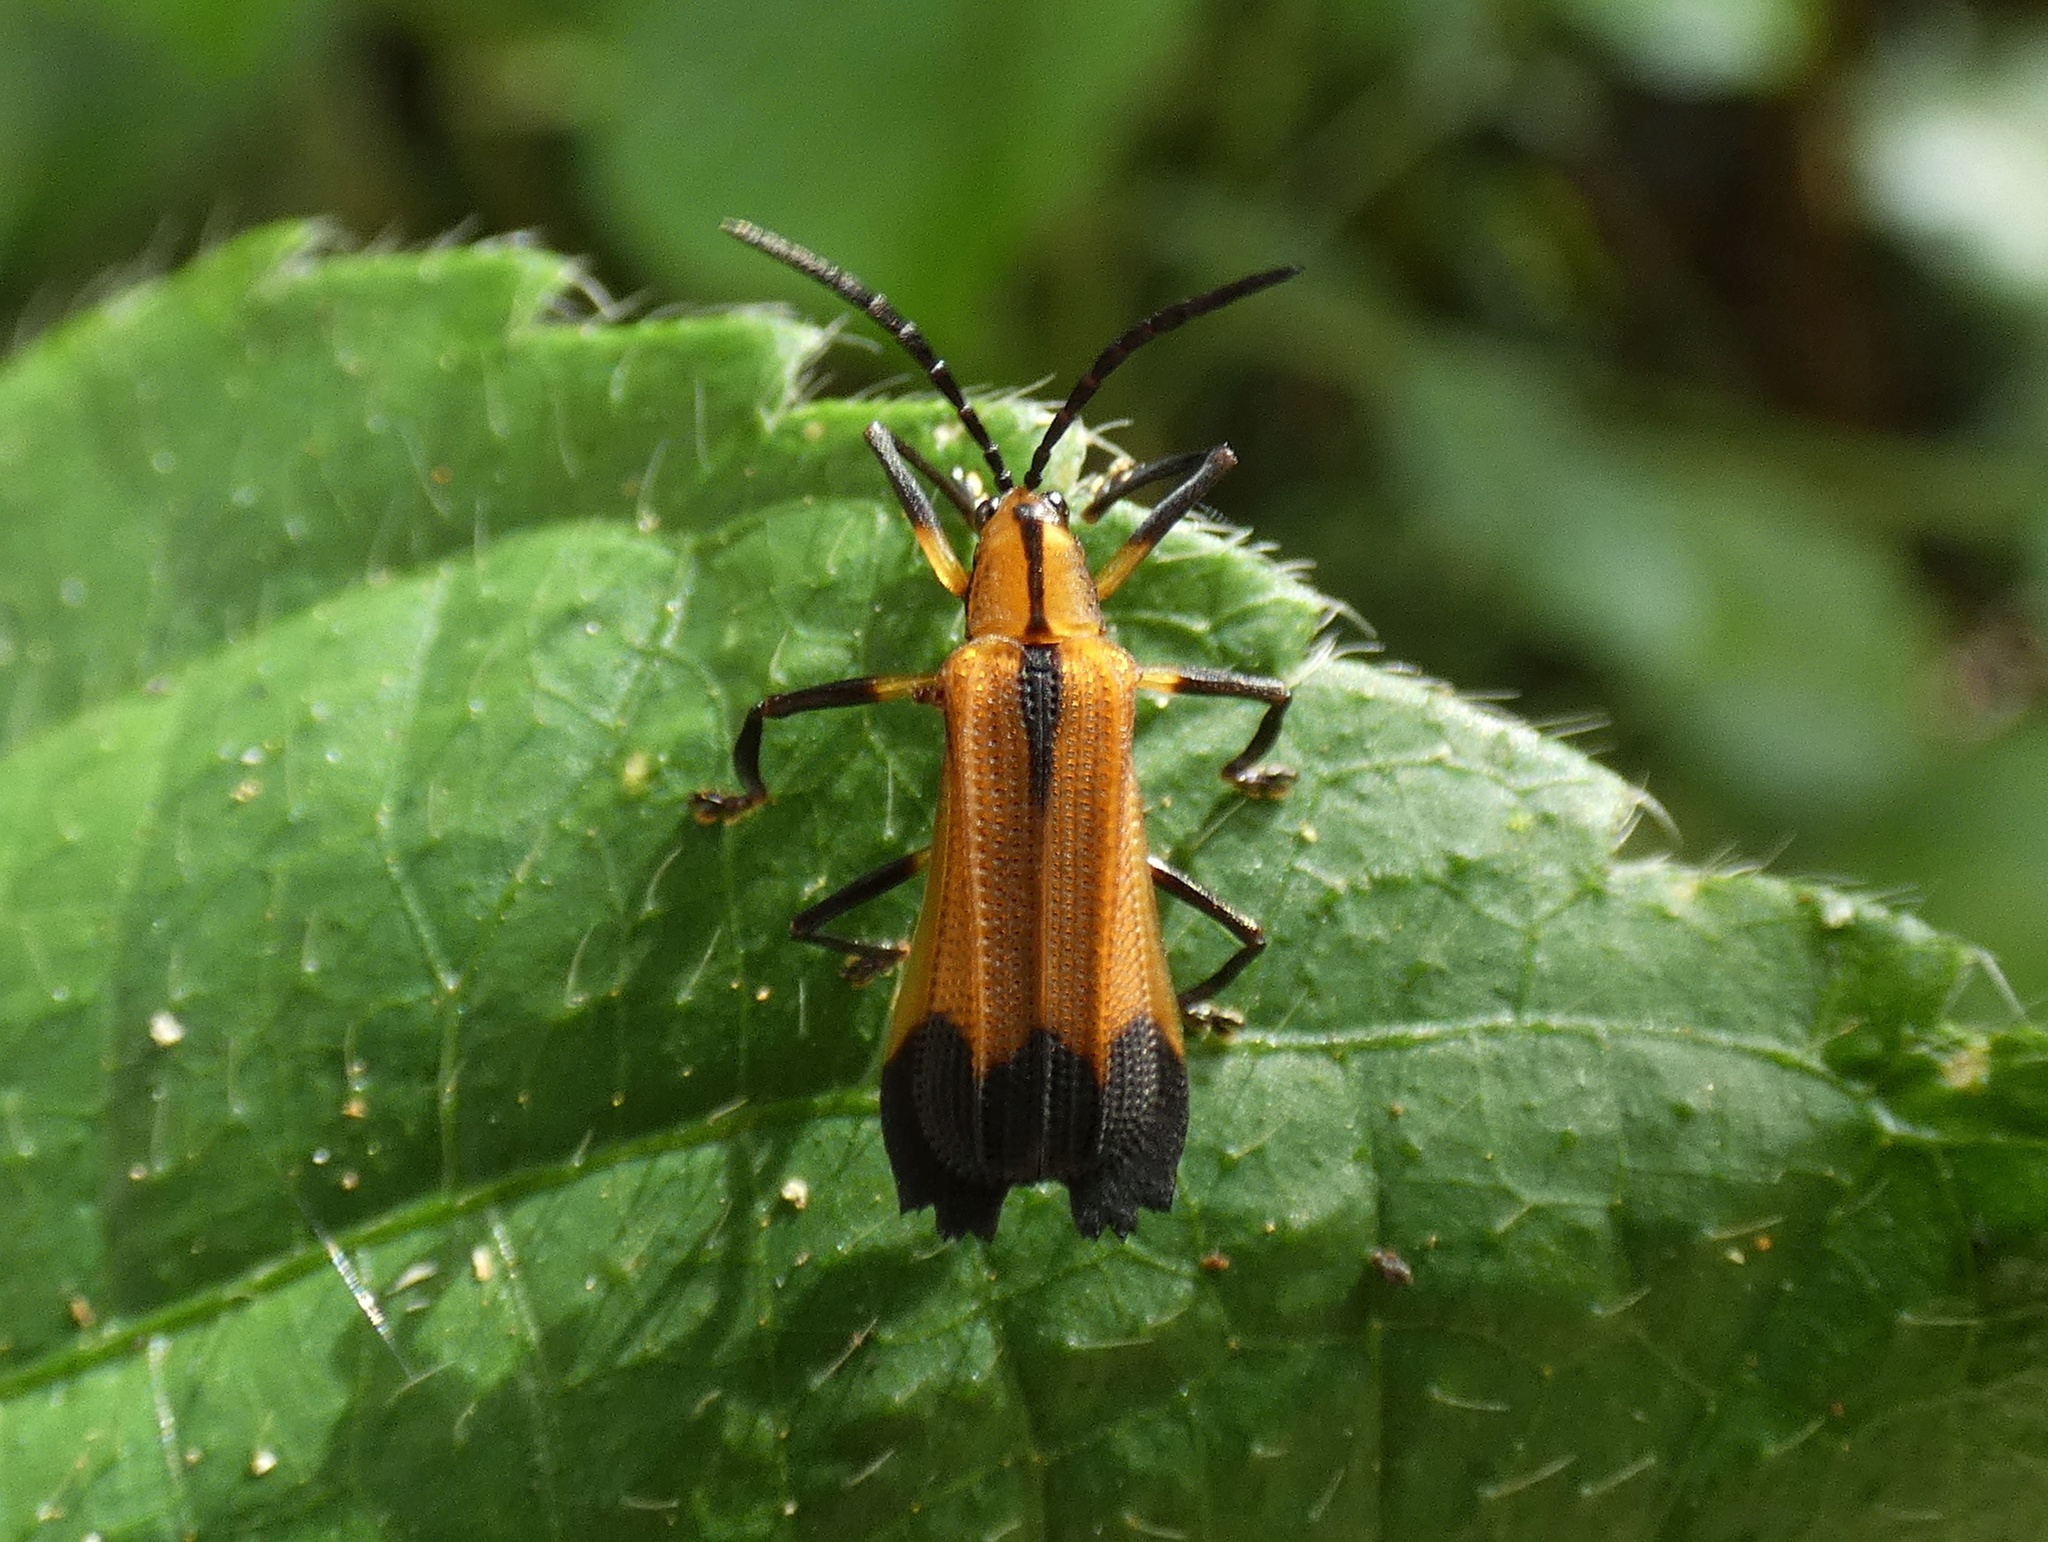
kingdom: Animalia
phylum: Arthropoda
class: Insecta
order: Coleoptera
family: Chrysomelidae
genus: Sceloenopla
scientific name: Sceloenopla ampliata
